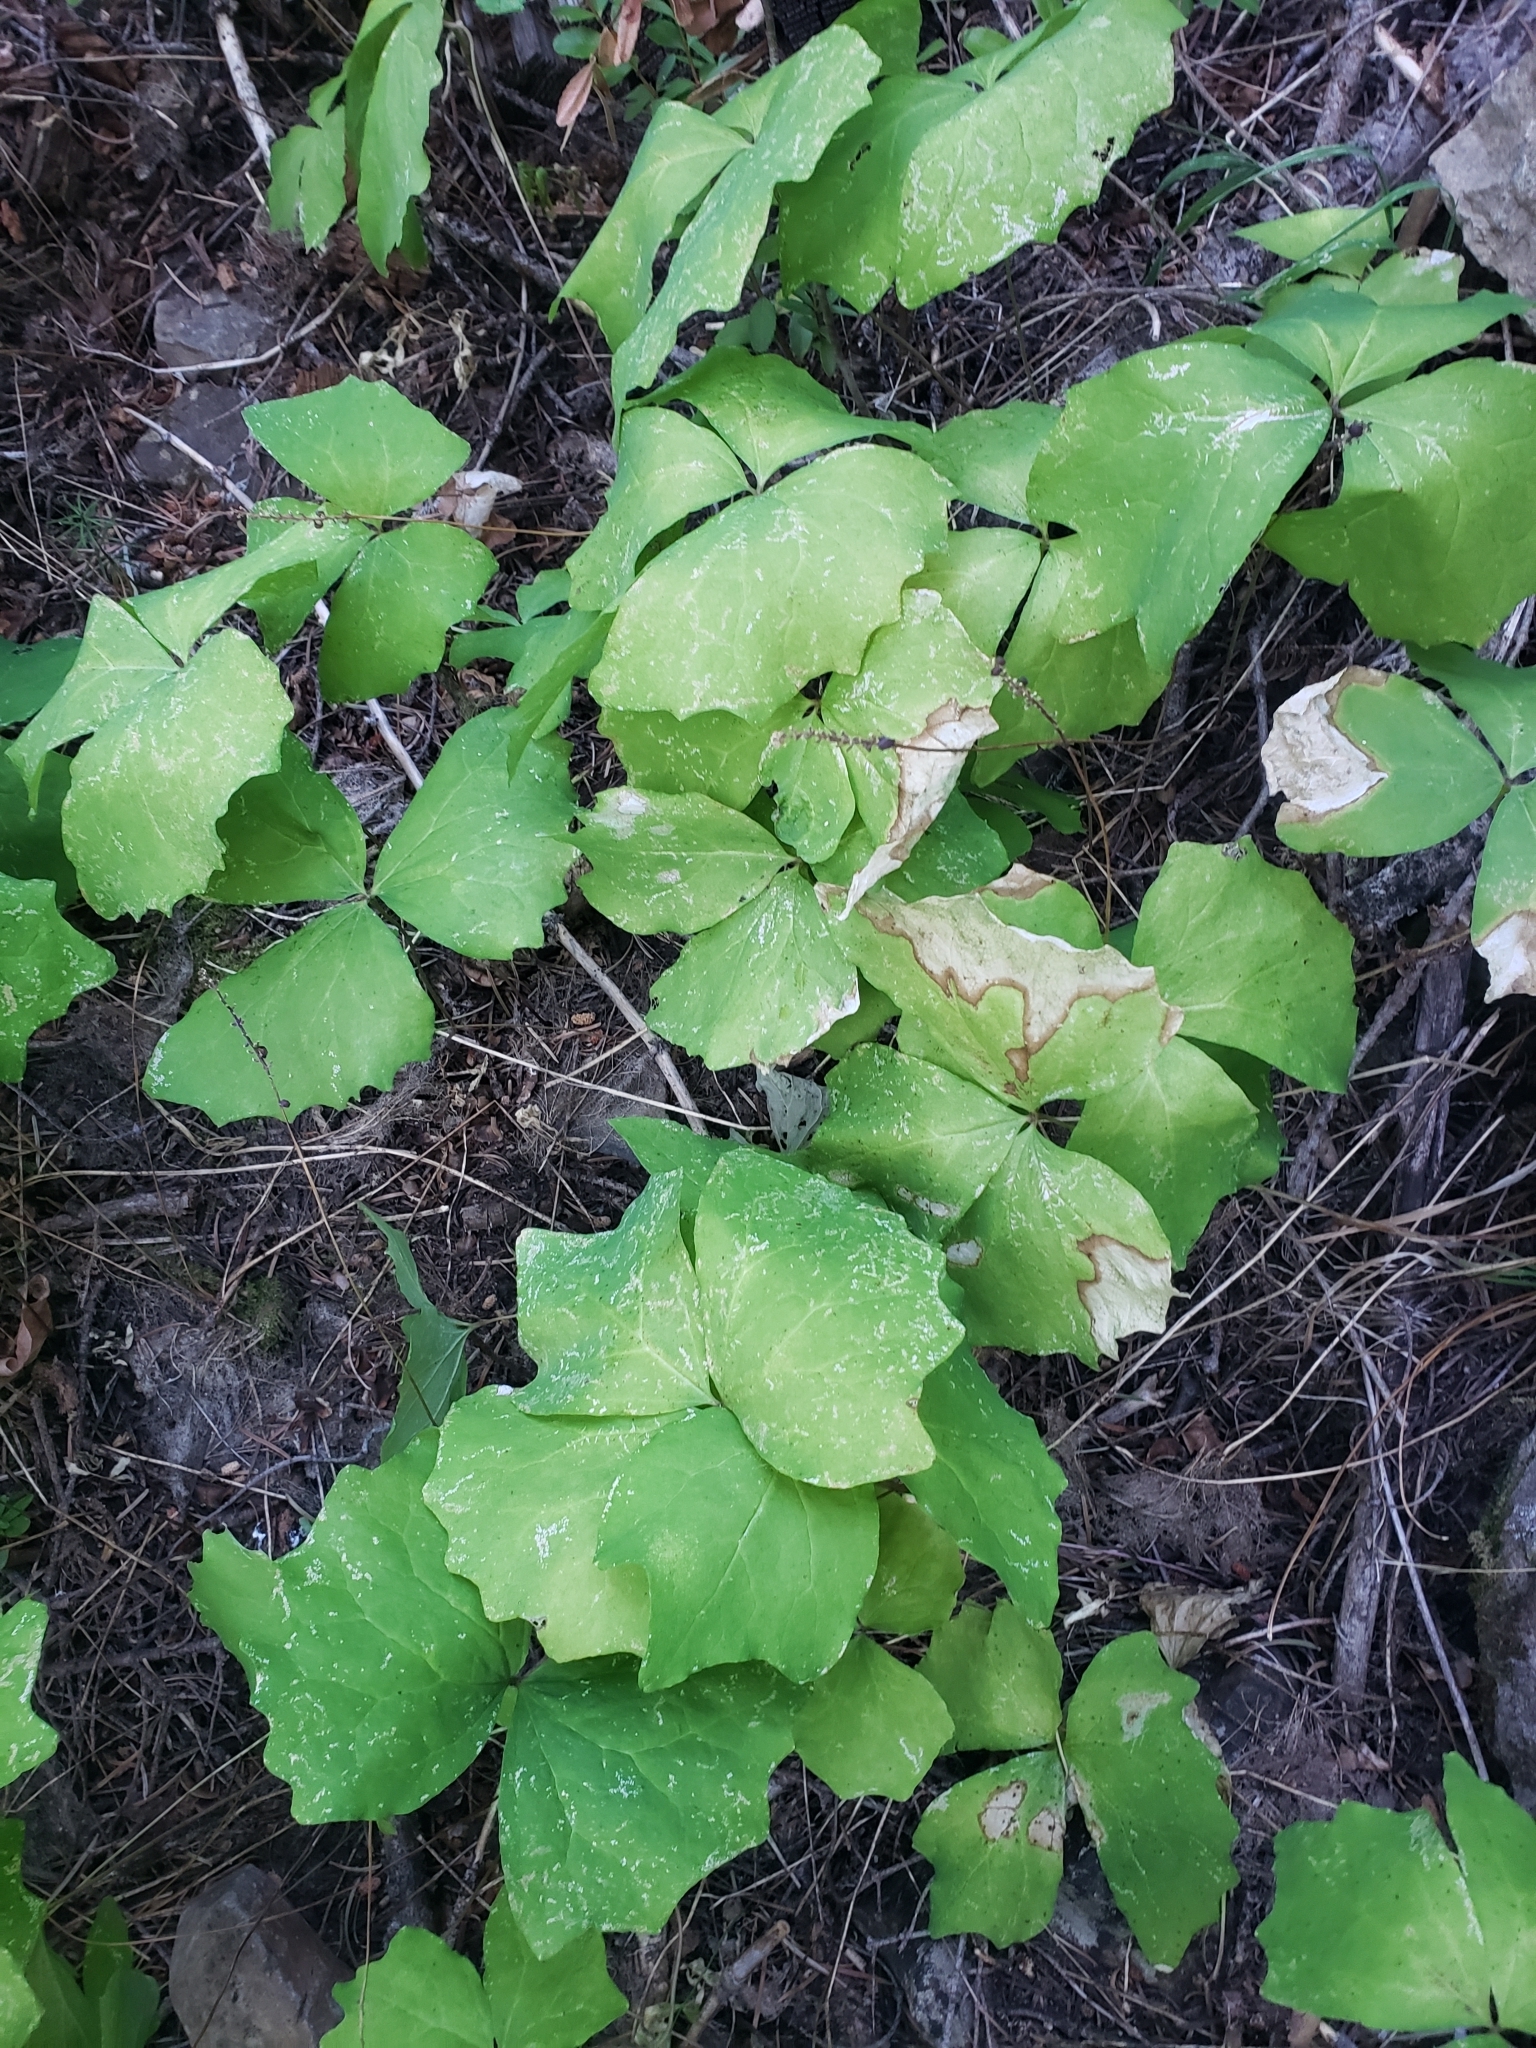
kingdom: Plantae
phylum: Tracheophyta
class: Magnoliopsida
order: Ranunculales
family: Berberidaceae
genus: Achlys
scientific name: Achlys triphylla
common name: Vanilla-leaf
